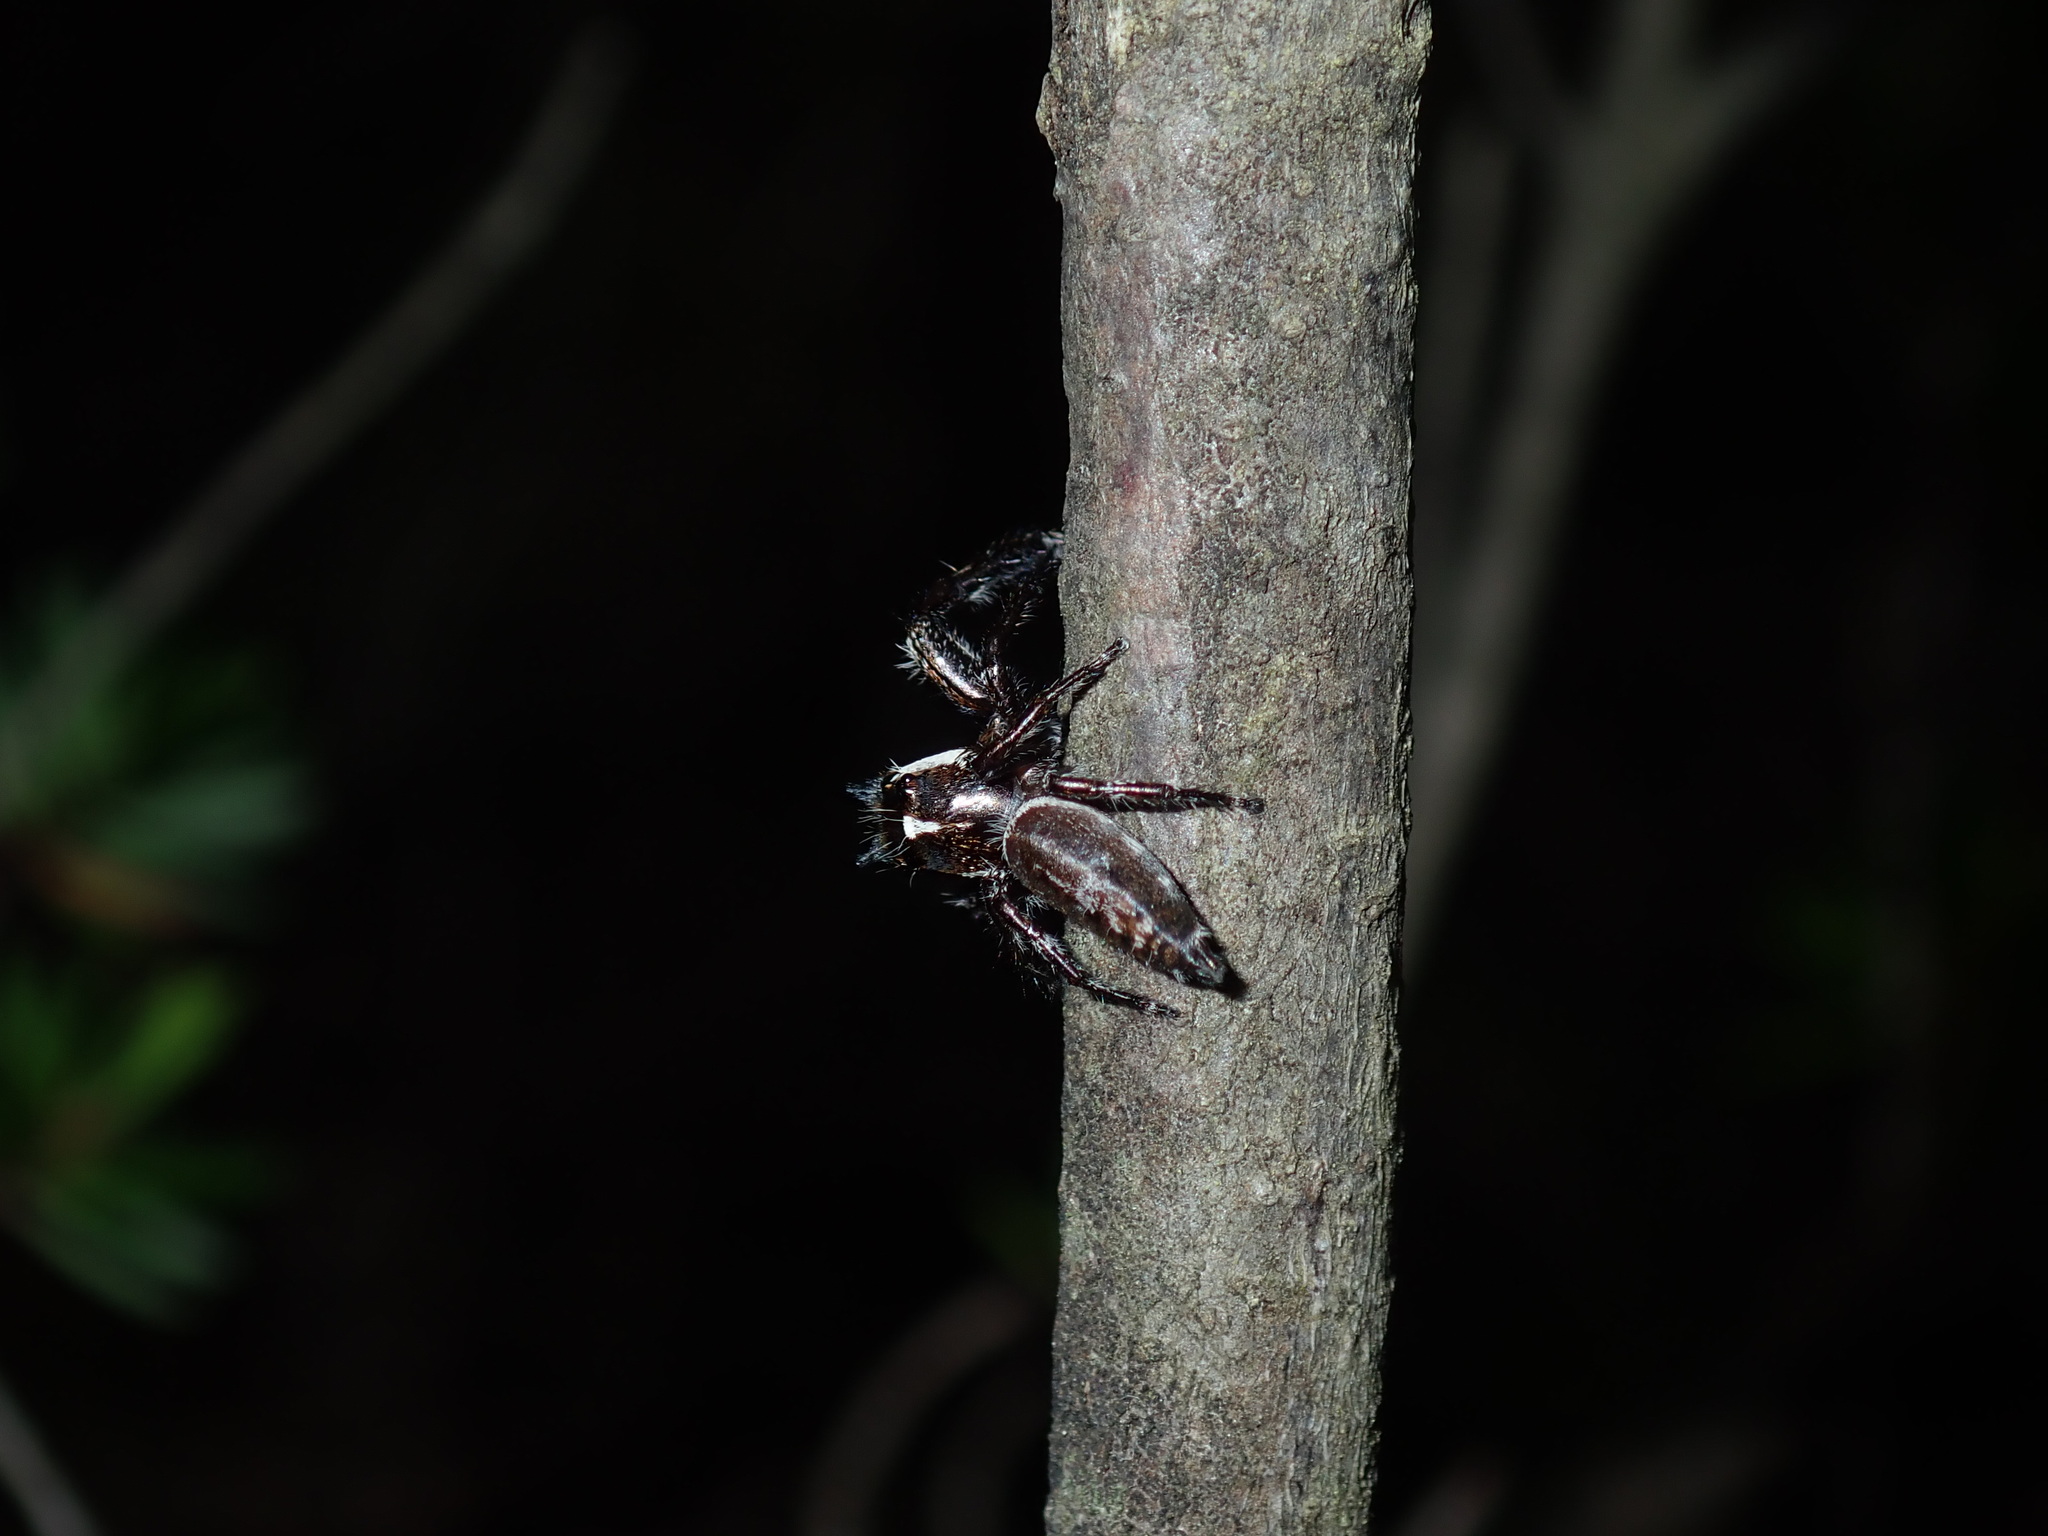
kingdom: Animalia
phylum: Arthropoda
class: Arachnida
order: Araneae
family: Salticidae
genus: Sandalodes
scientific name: Sandalodes bipenicillatus
